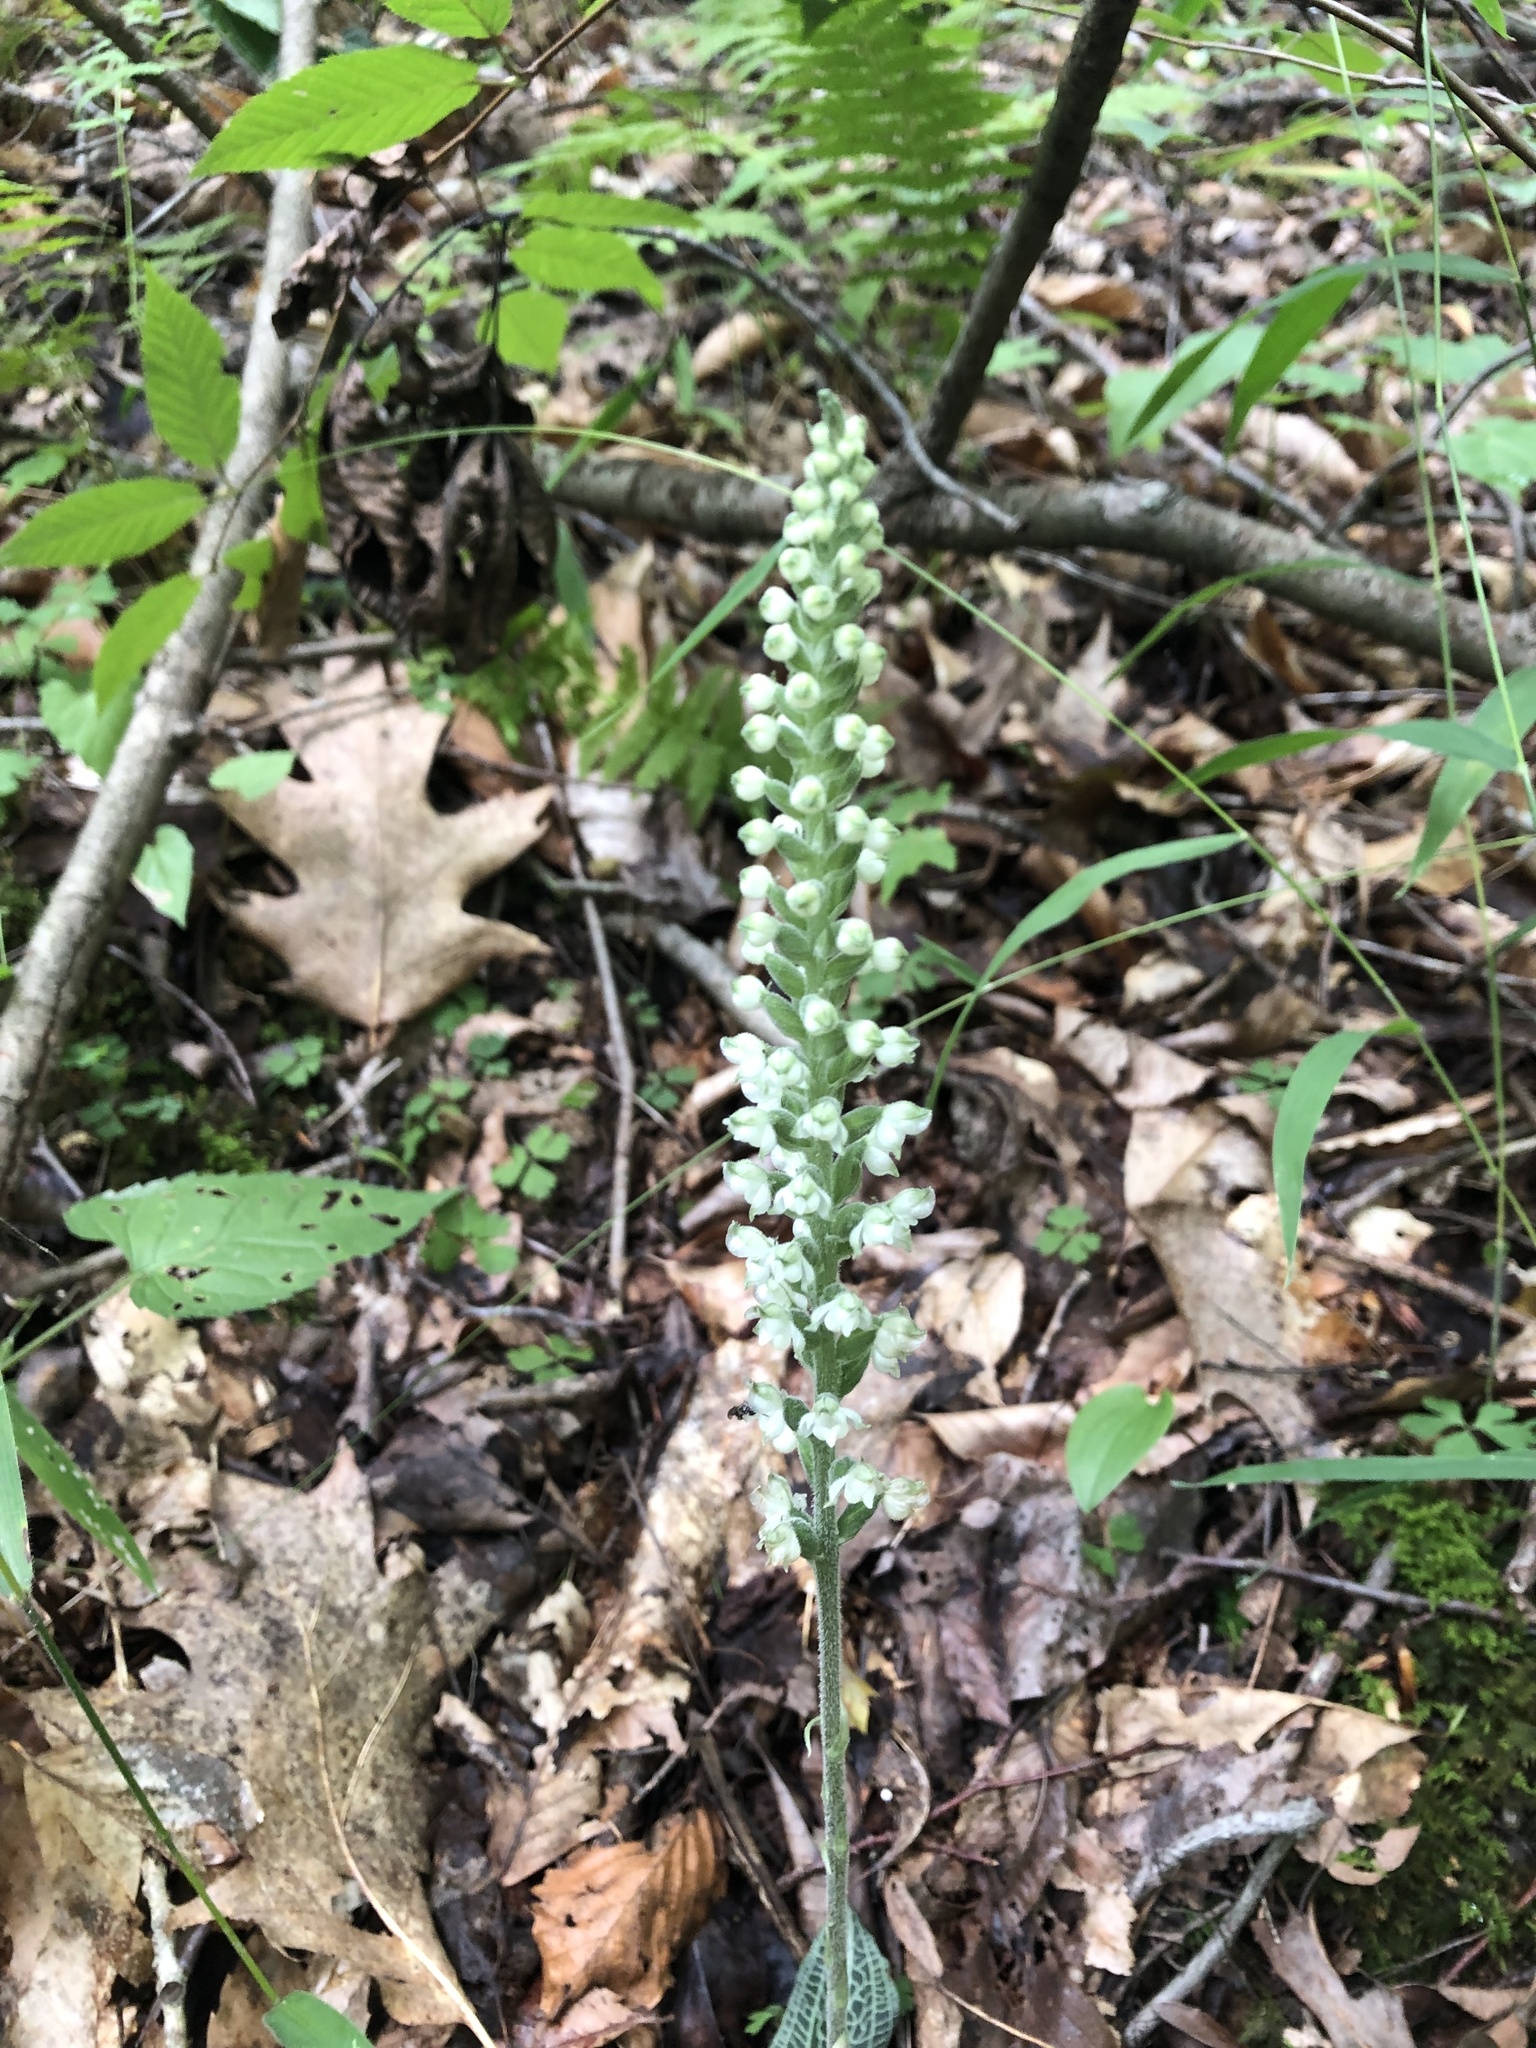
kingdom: Plantae
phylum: Tracheophyta
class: Liliopsida
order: Asparagales
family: Orchidaceae
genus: Goodyera
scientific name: Goodyera pubescens
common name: Downy rattlesnake-plantain
